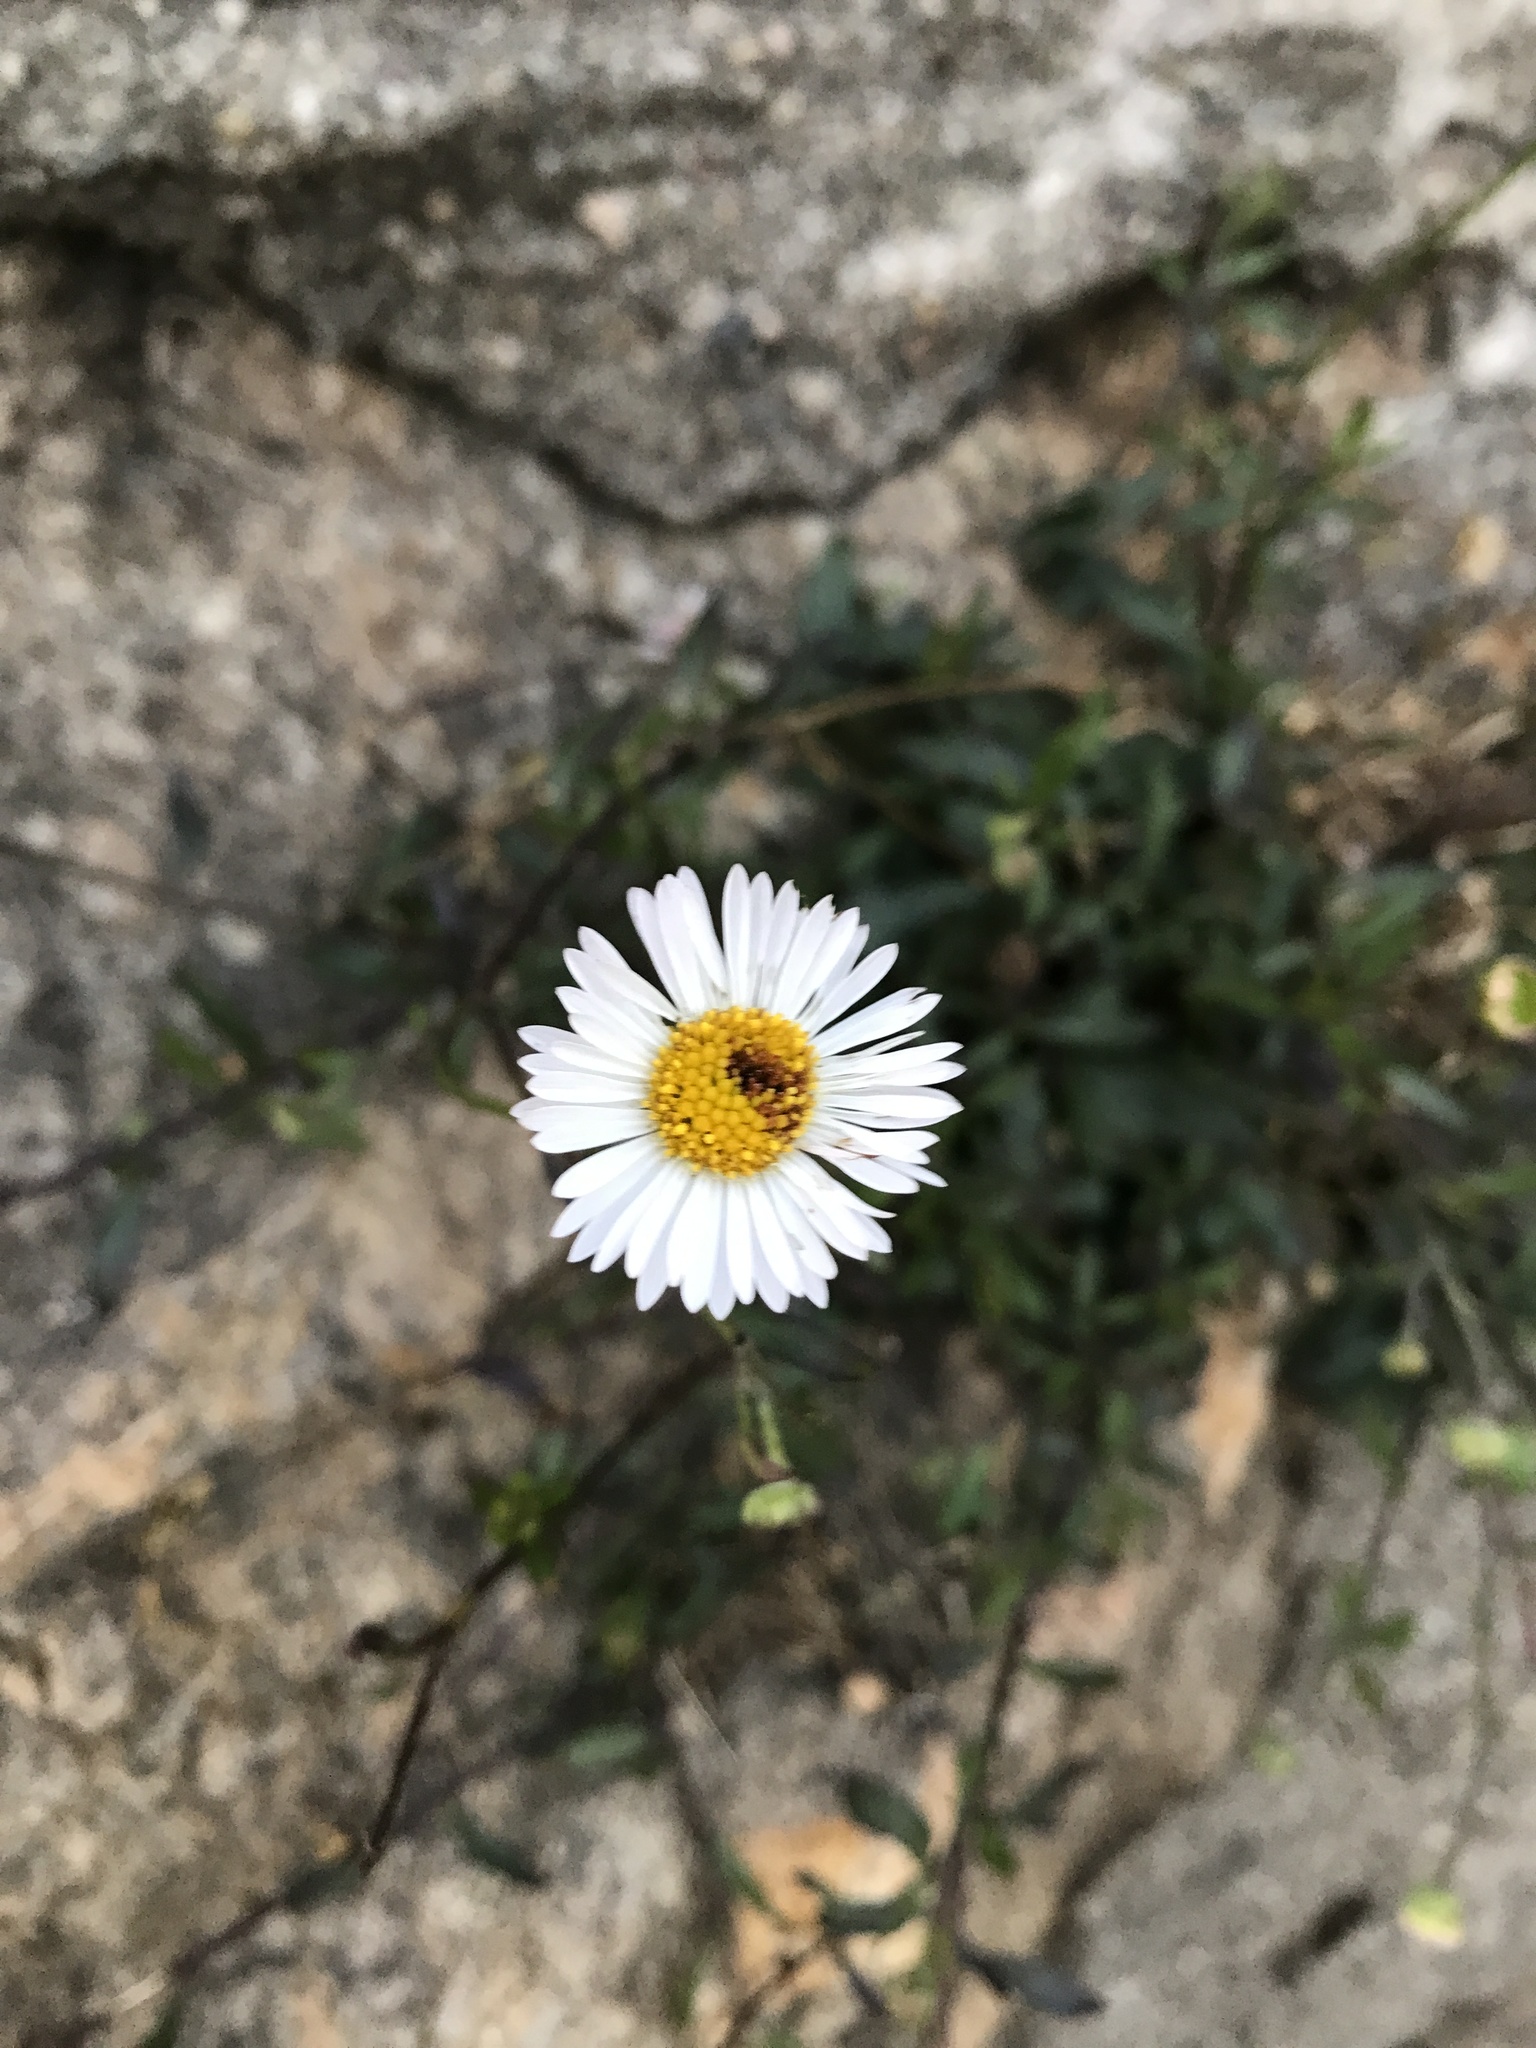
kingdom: Plantae
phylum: Tracheophyta
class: Magnoliopsida
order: Asterales
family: Asteraceae
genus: Erigeron
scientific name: Erigeron karvinskianus
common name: Mexican fleabane
